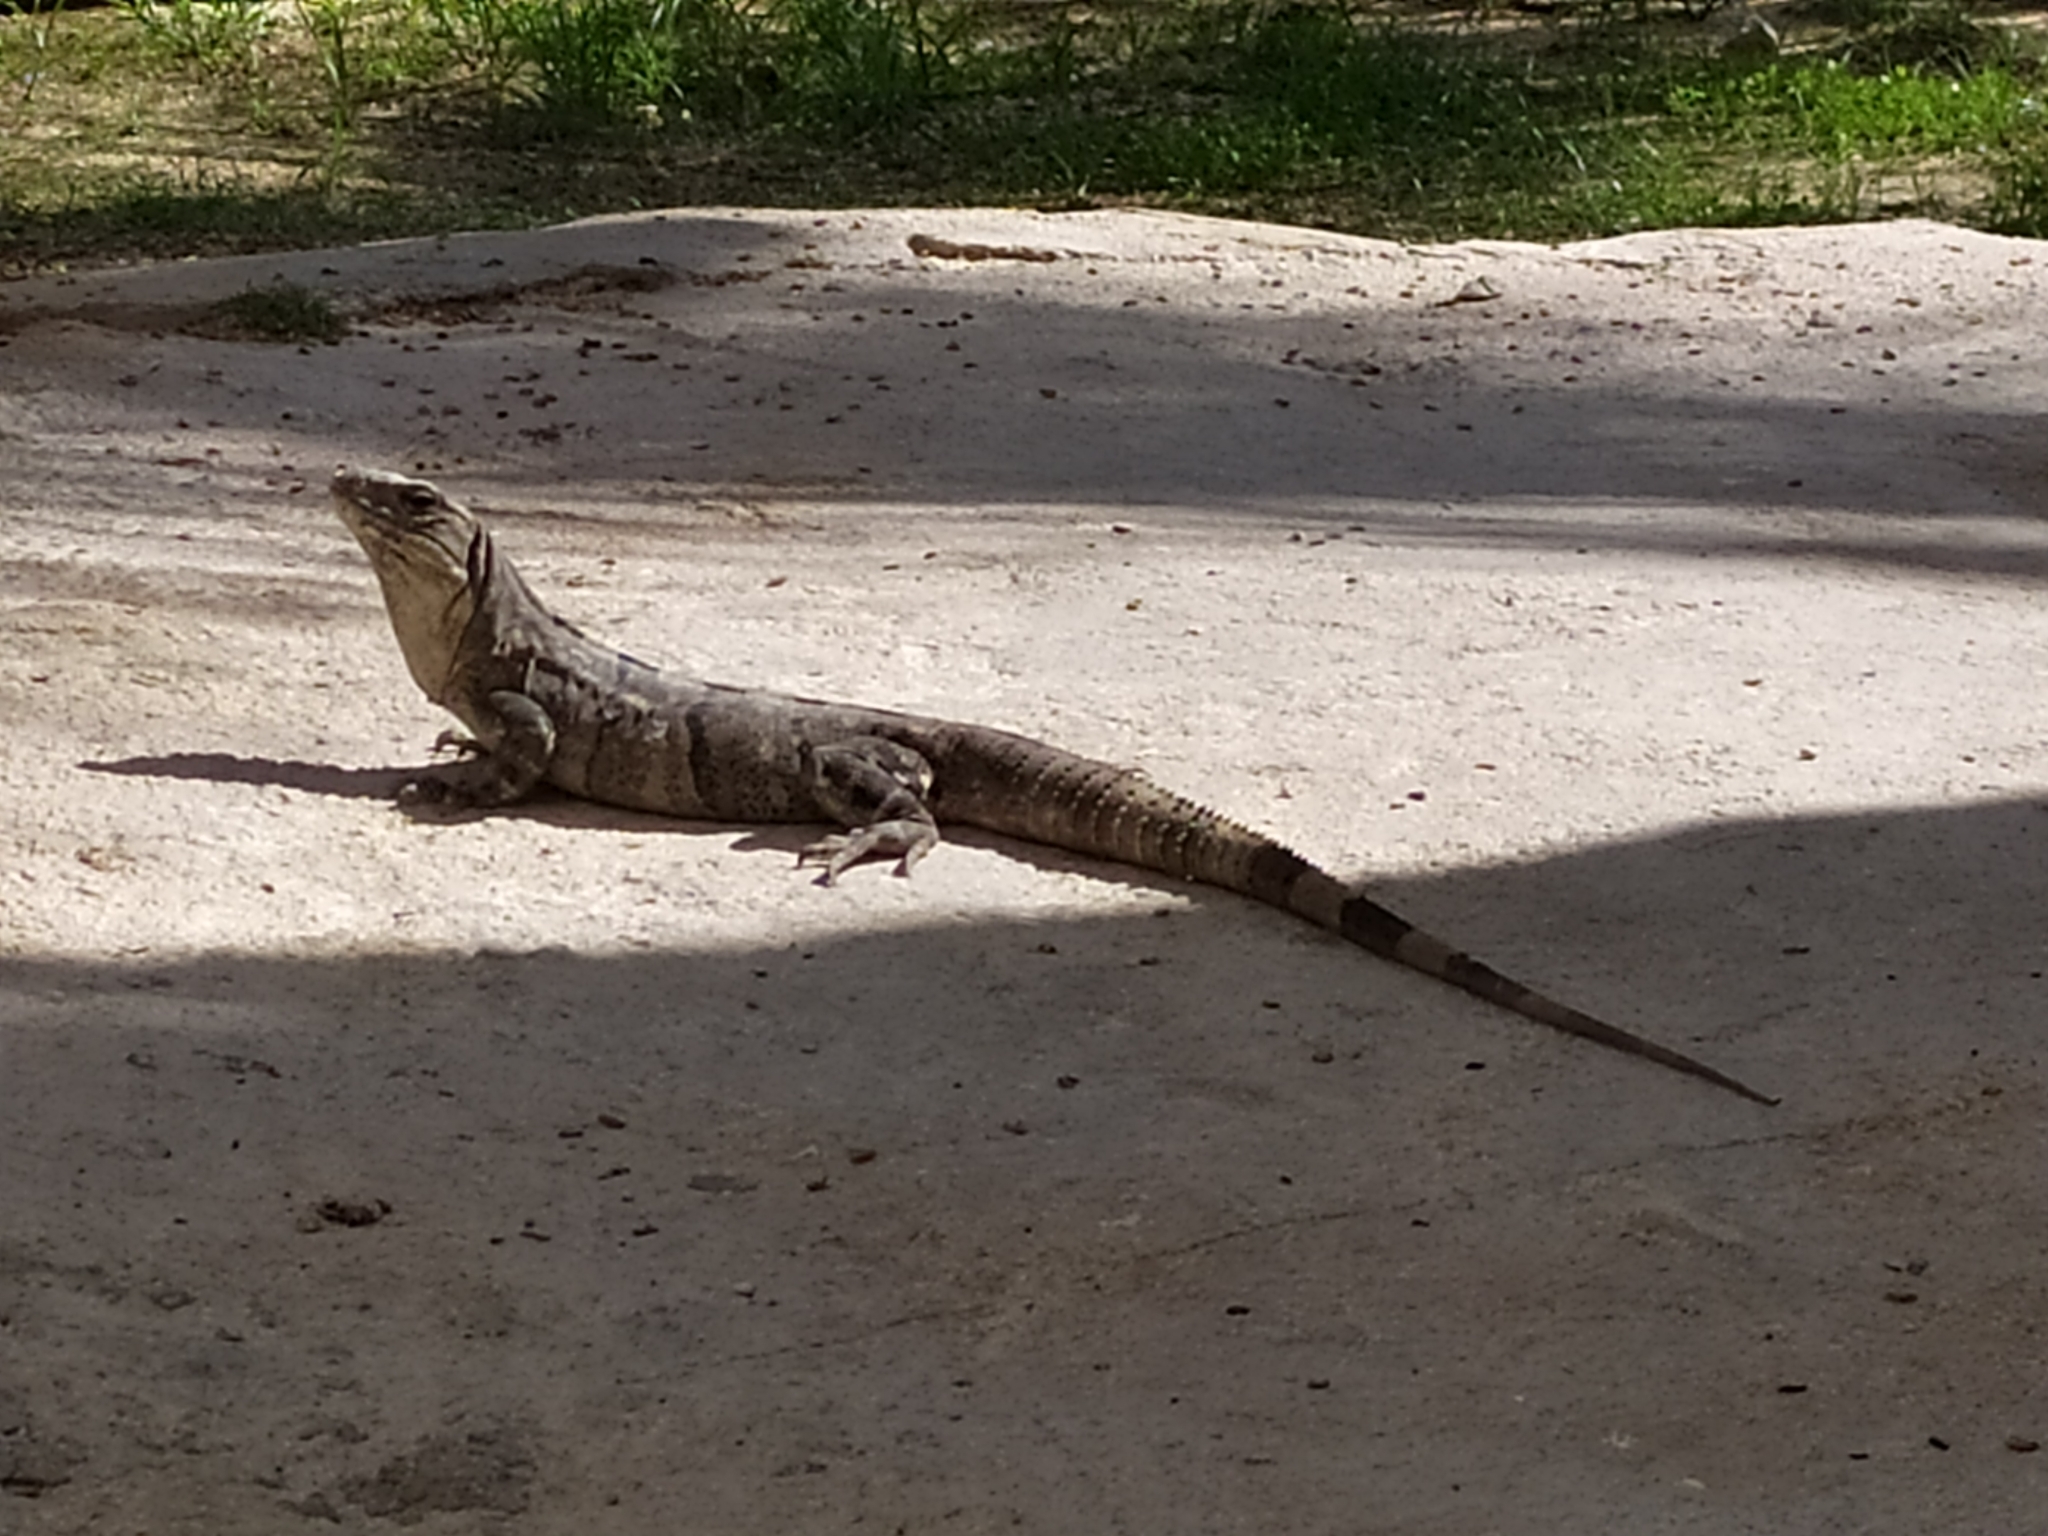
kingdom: Animalia
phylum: Chordata
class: Squamata
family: Iguanidae
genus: Ctenosaura
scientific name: Ctenosaura similis
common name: Black spiny-tailed iguana
